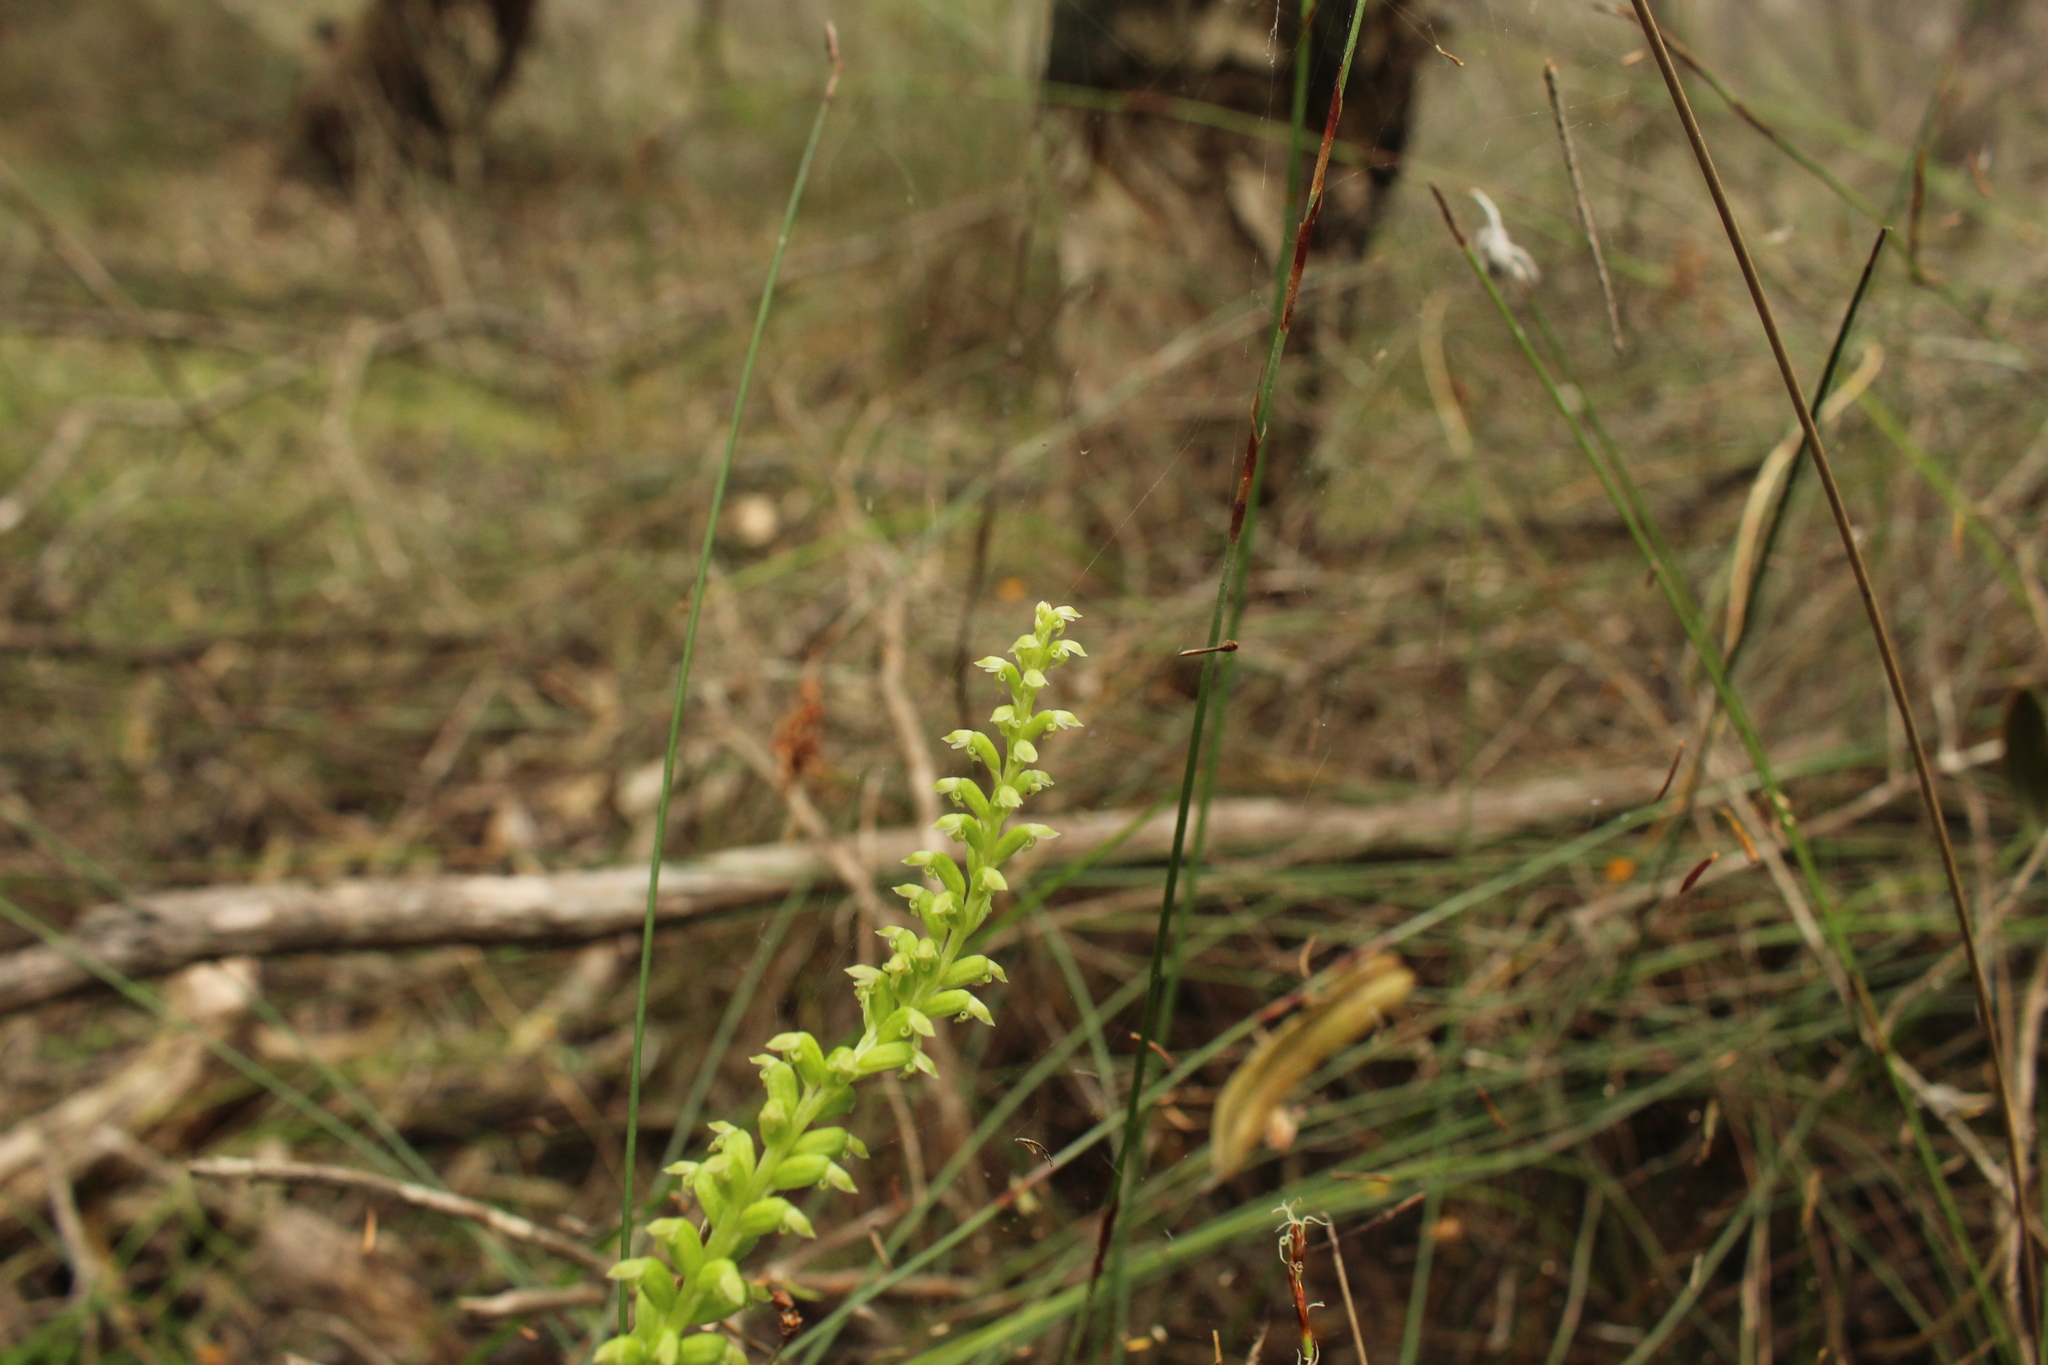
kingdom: Plantae
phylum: Tracheophyta
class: Liliopsida
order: Asparagales
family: Orchidaceae
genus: Microtis
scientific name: Microtis media
